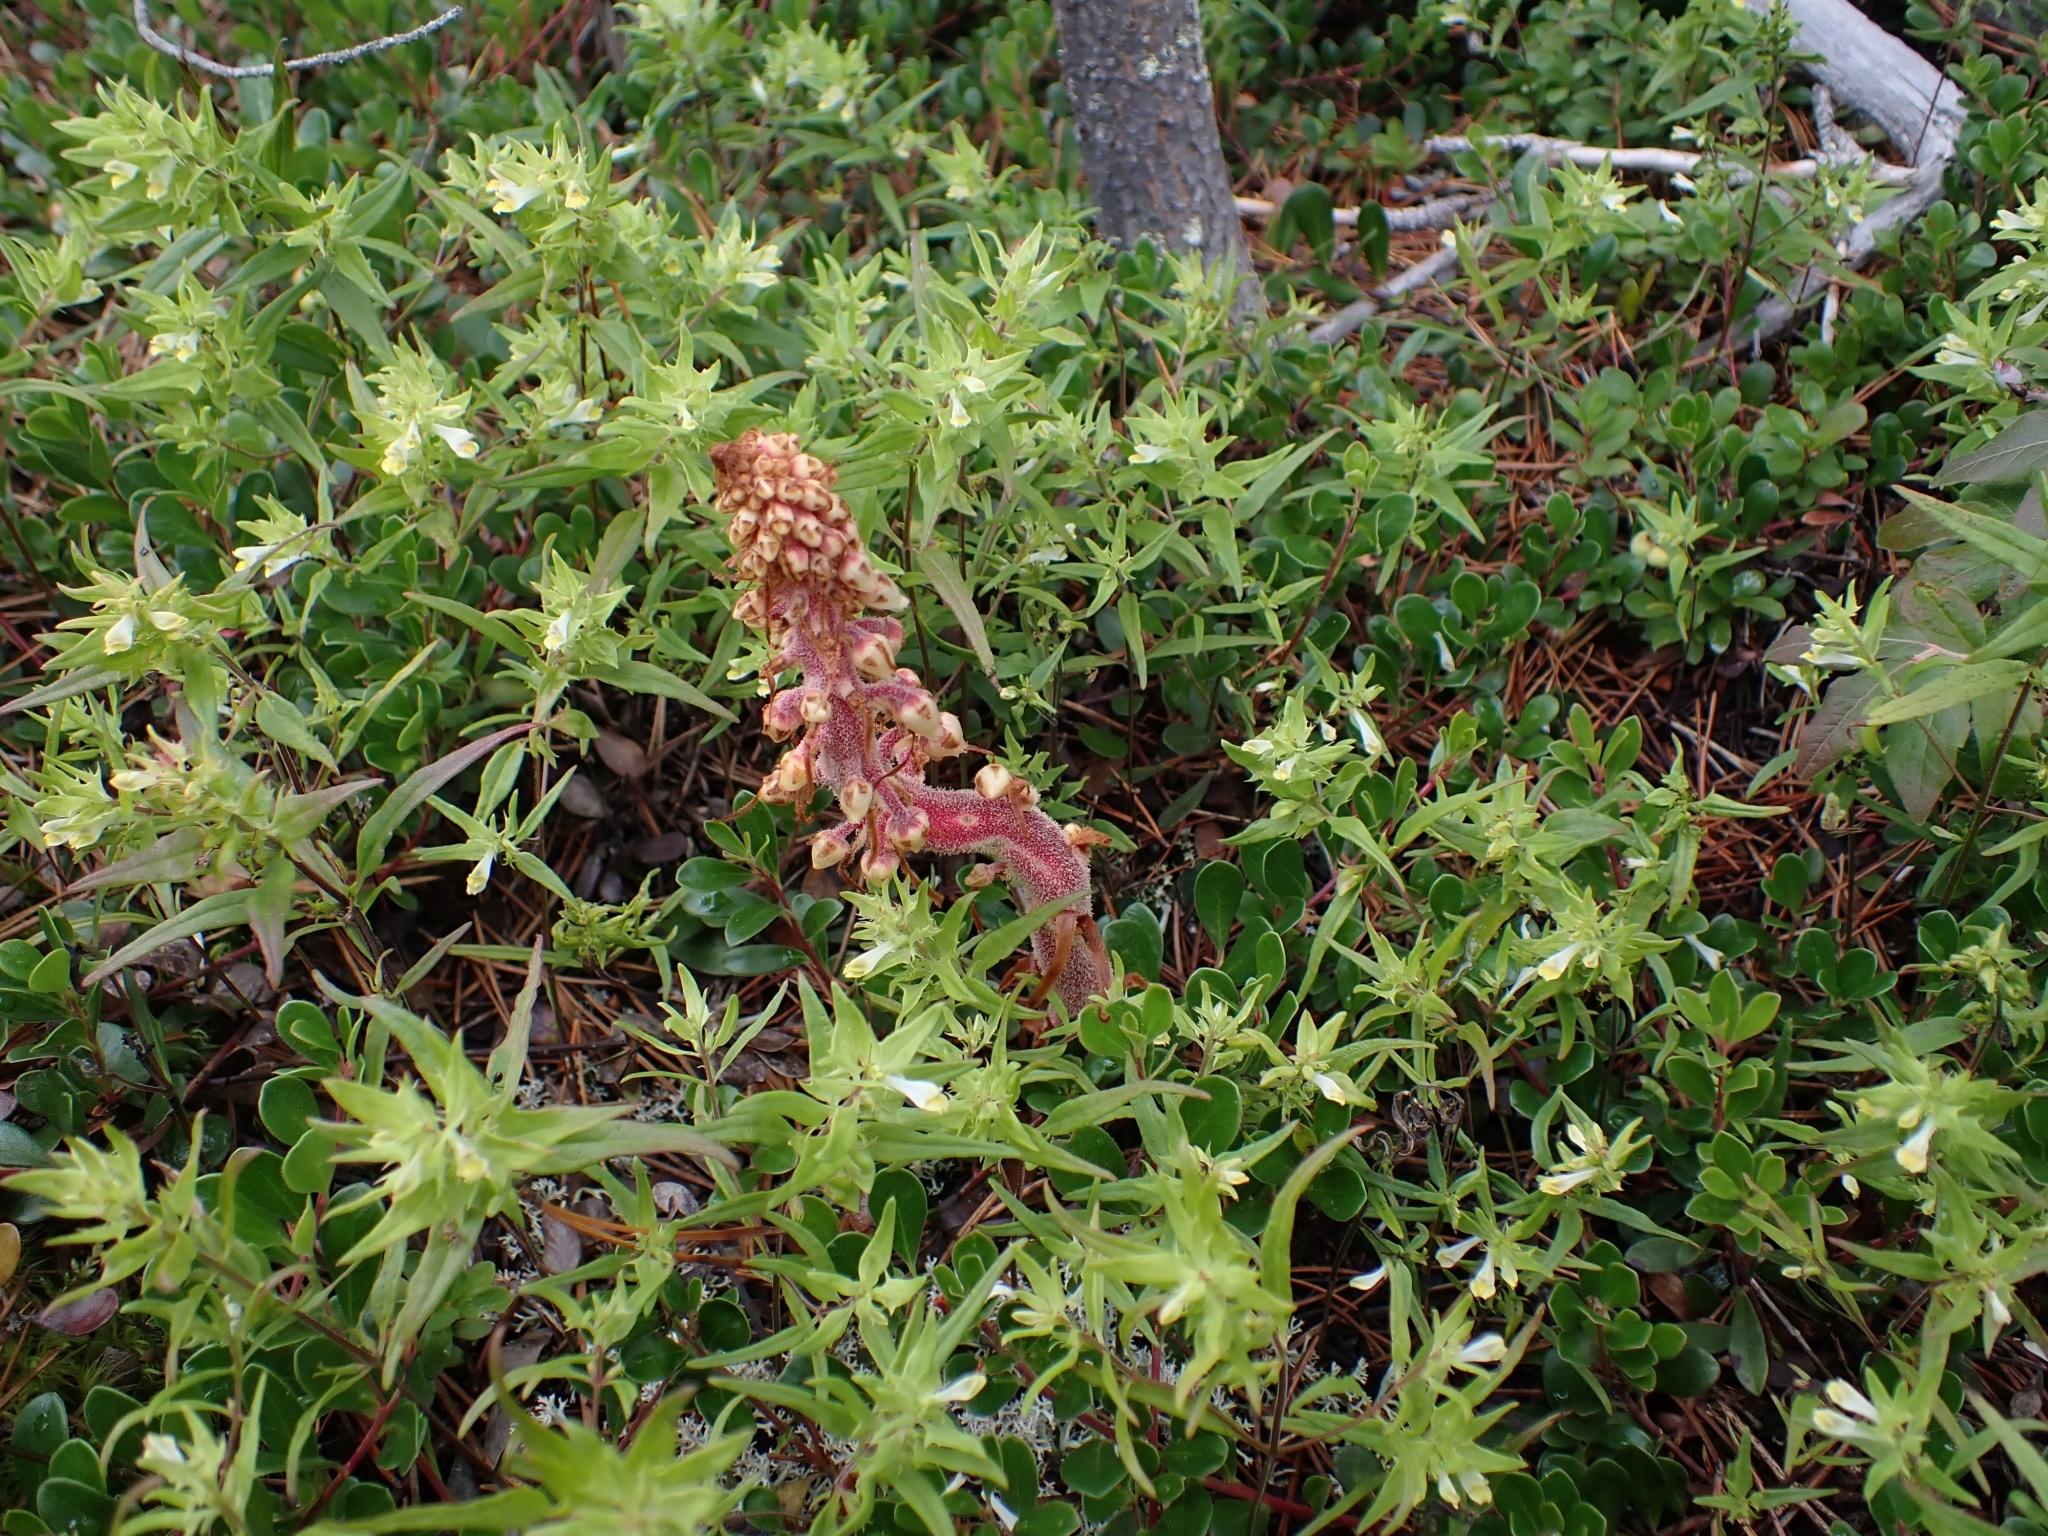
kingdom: Plantae
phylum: Tracheophyta
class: Magnoliopsida
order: Ericales
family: Ericaceae
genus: Pterospora
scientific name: Pterospora andromedea
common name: Giant bird's-nest
